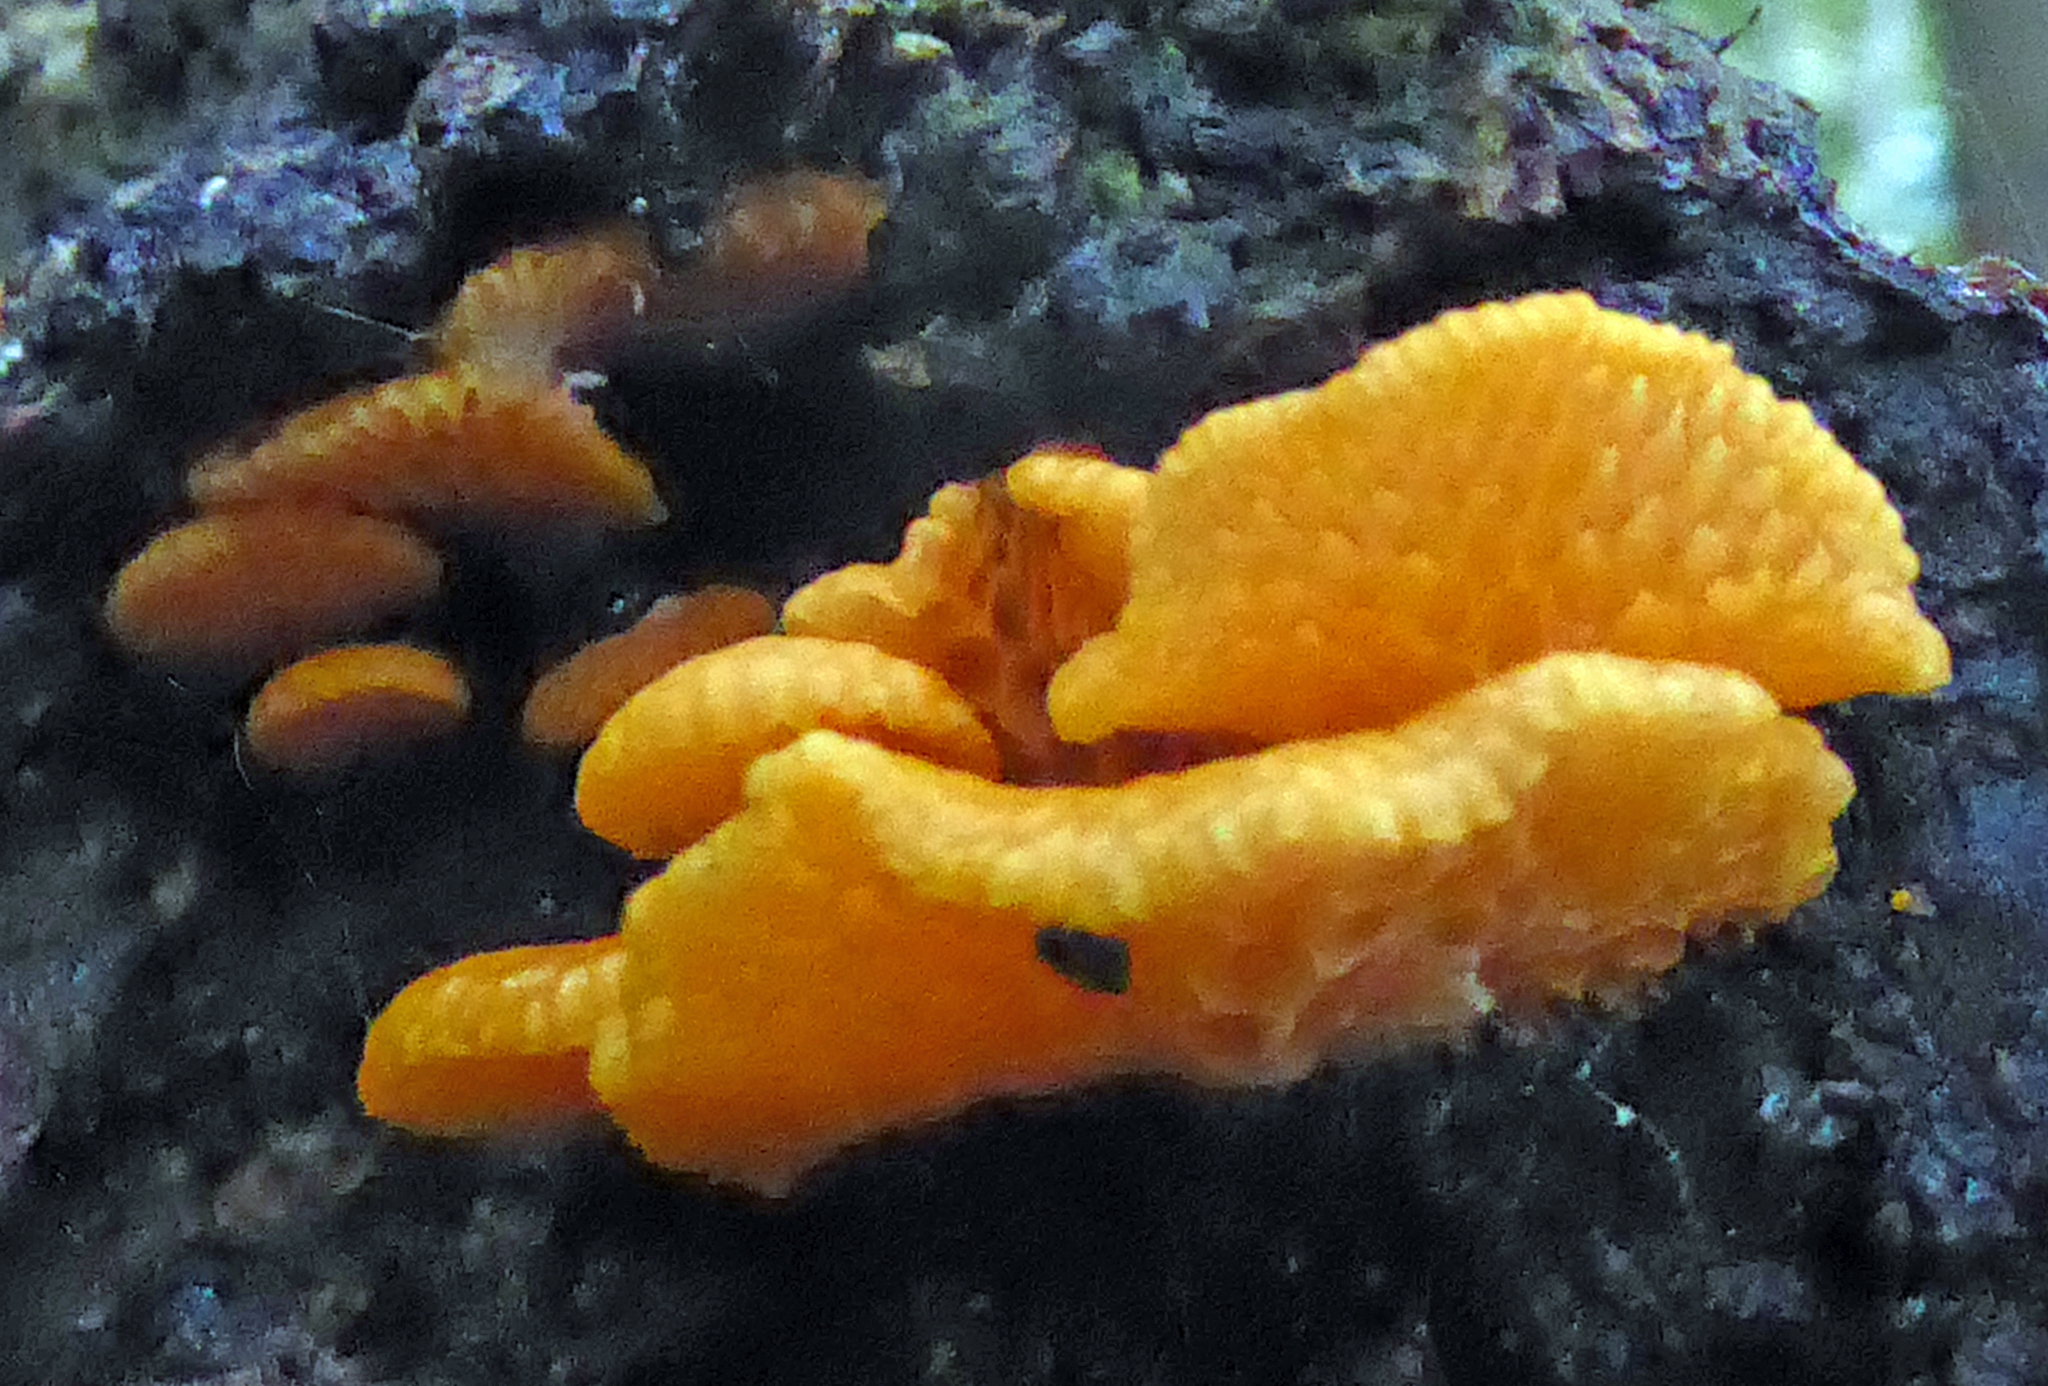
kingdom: Fungi
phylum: Basidiomycota
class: Agaricomycetes
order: Agaricales
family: Mycenaceae
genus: Favolaschia
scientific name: Favolaschia claudopus
